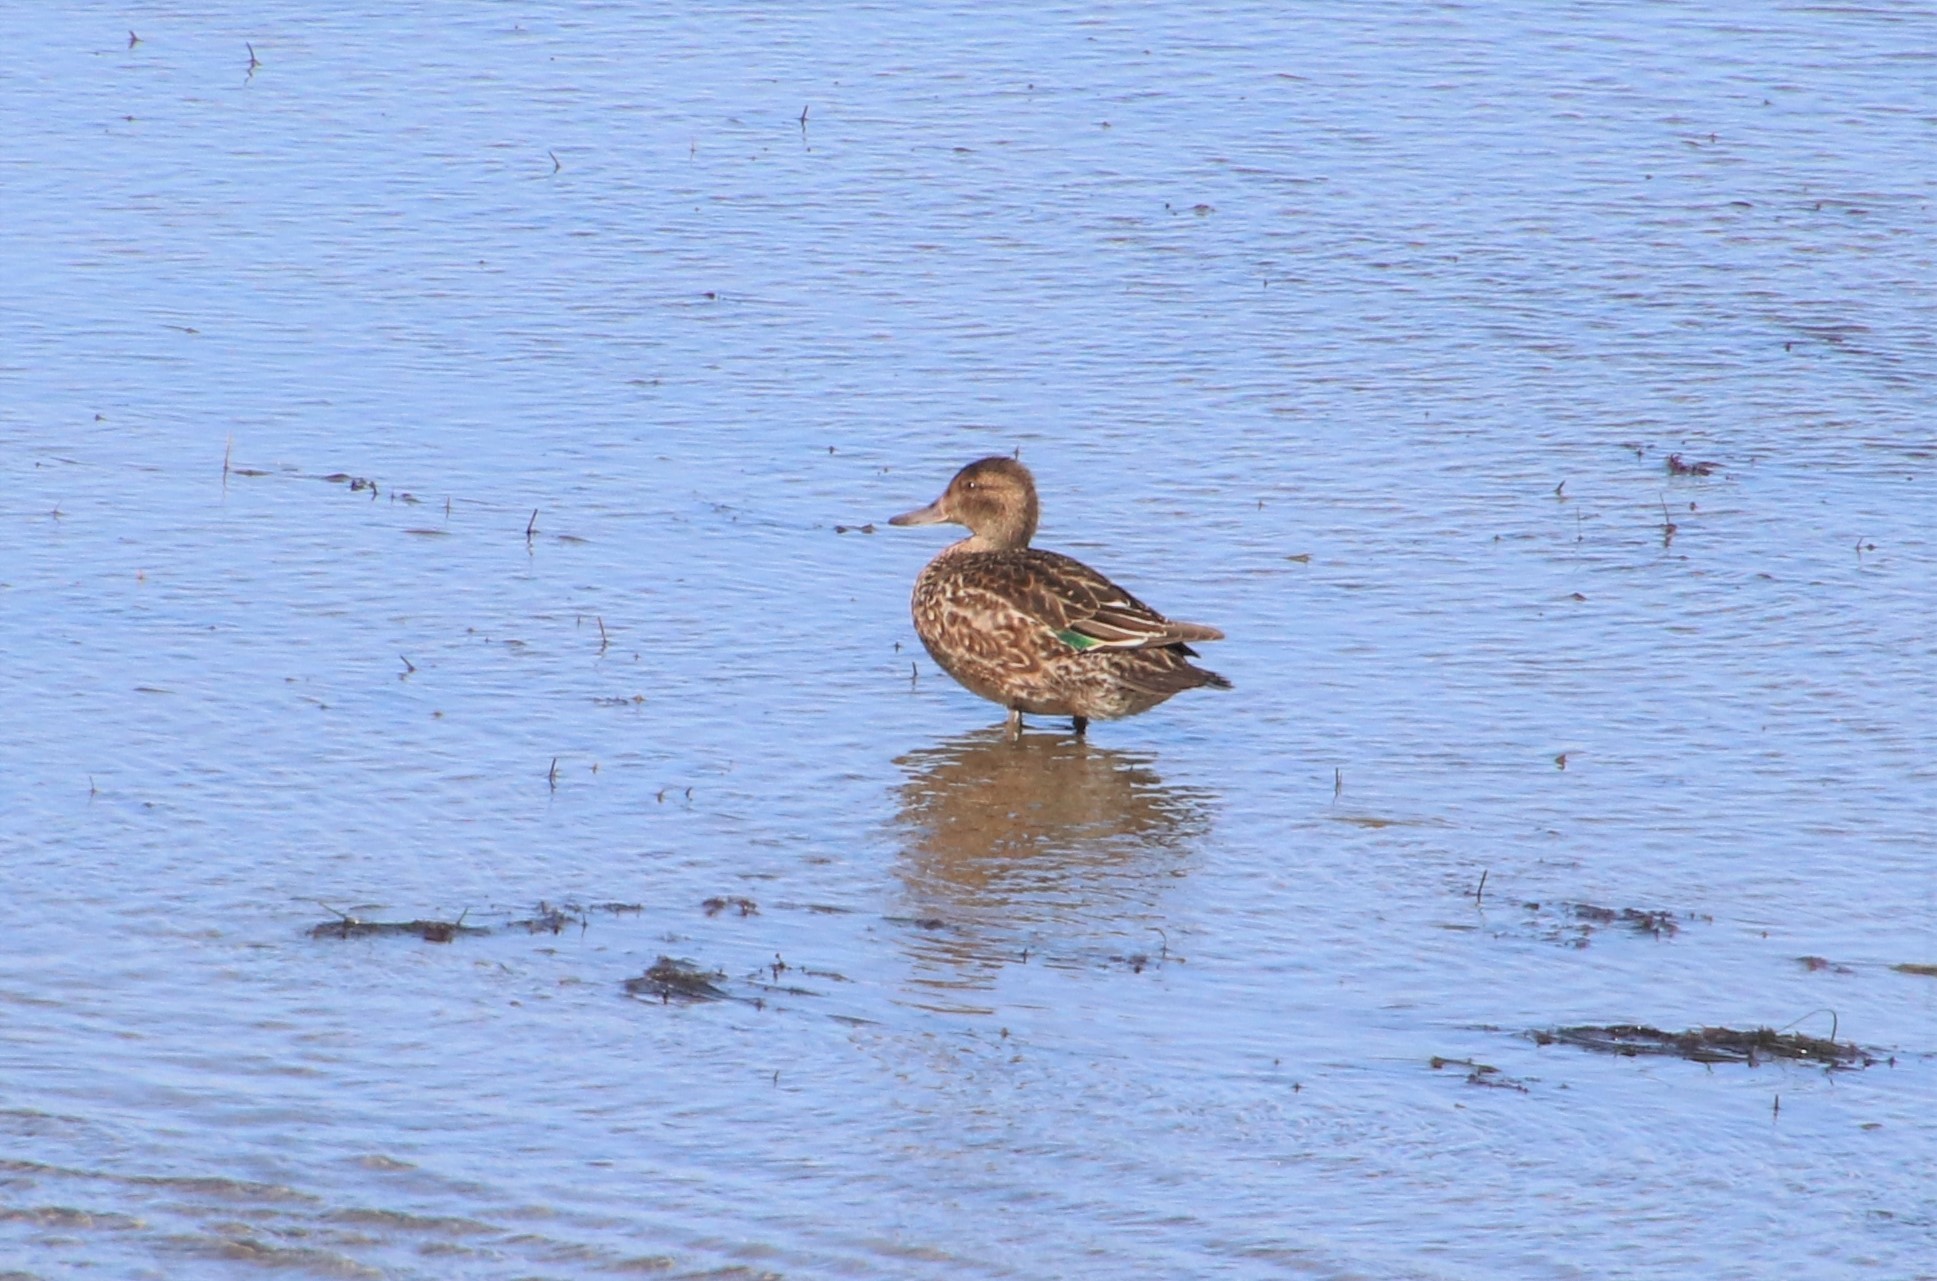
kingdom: Animalia
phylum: Chordata
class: Aves
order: Anseriformes
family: Anatidae
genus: Anas
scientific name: Anas crecca
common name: Eurasian teal
